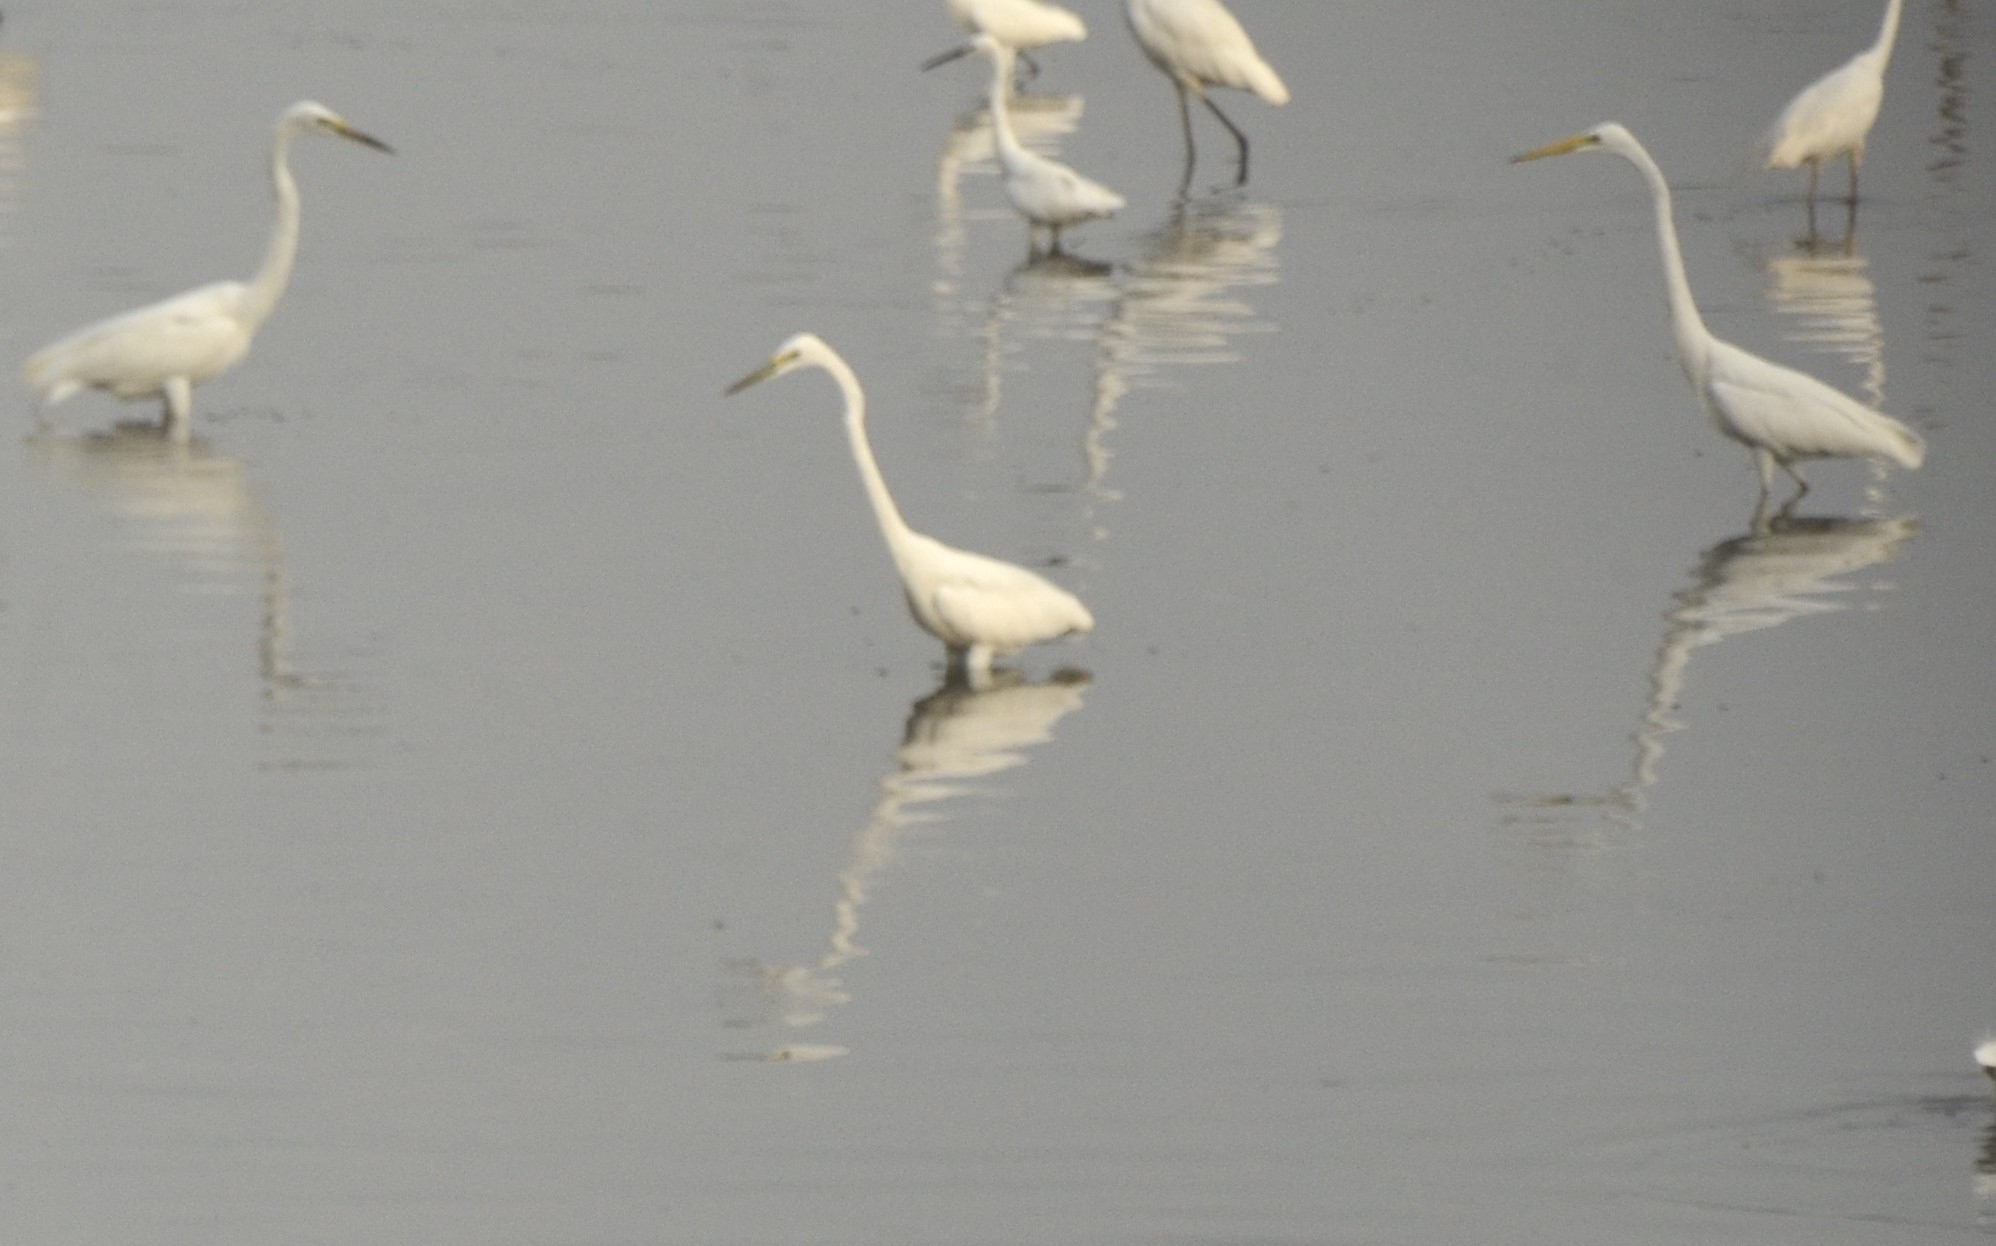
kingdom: Animalia
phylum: Chordata
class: Aves
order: Pelecaniformes
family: Ardeidae
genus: Ardea
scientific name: Ardea alba
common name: Great egret
